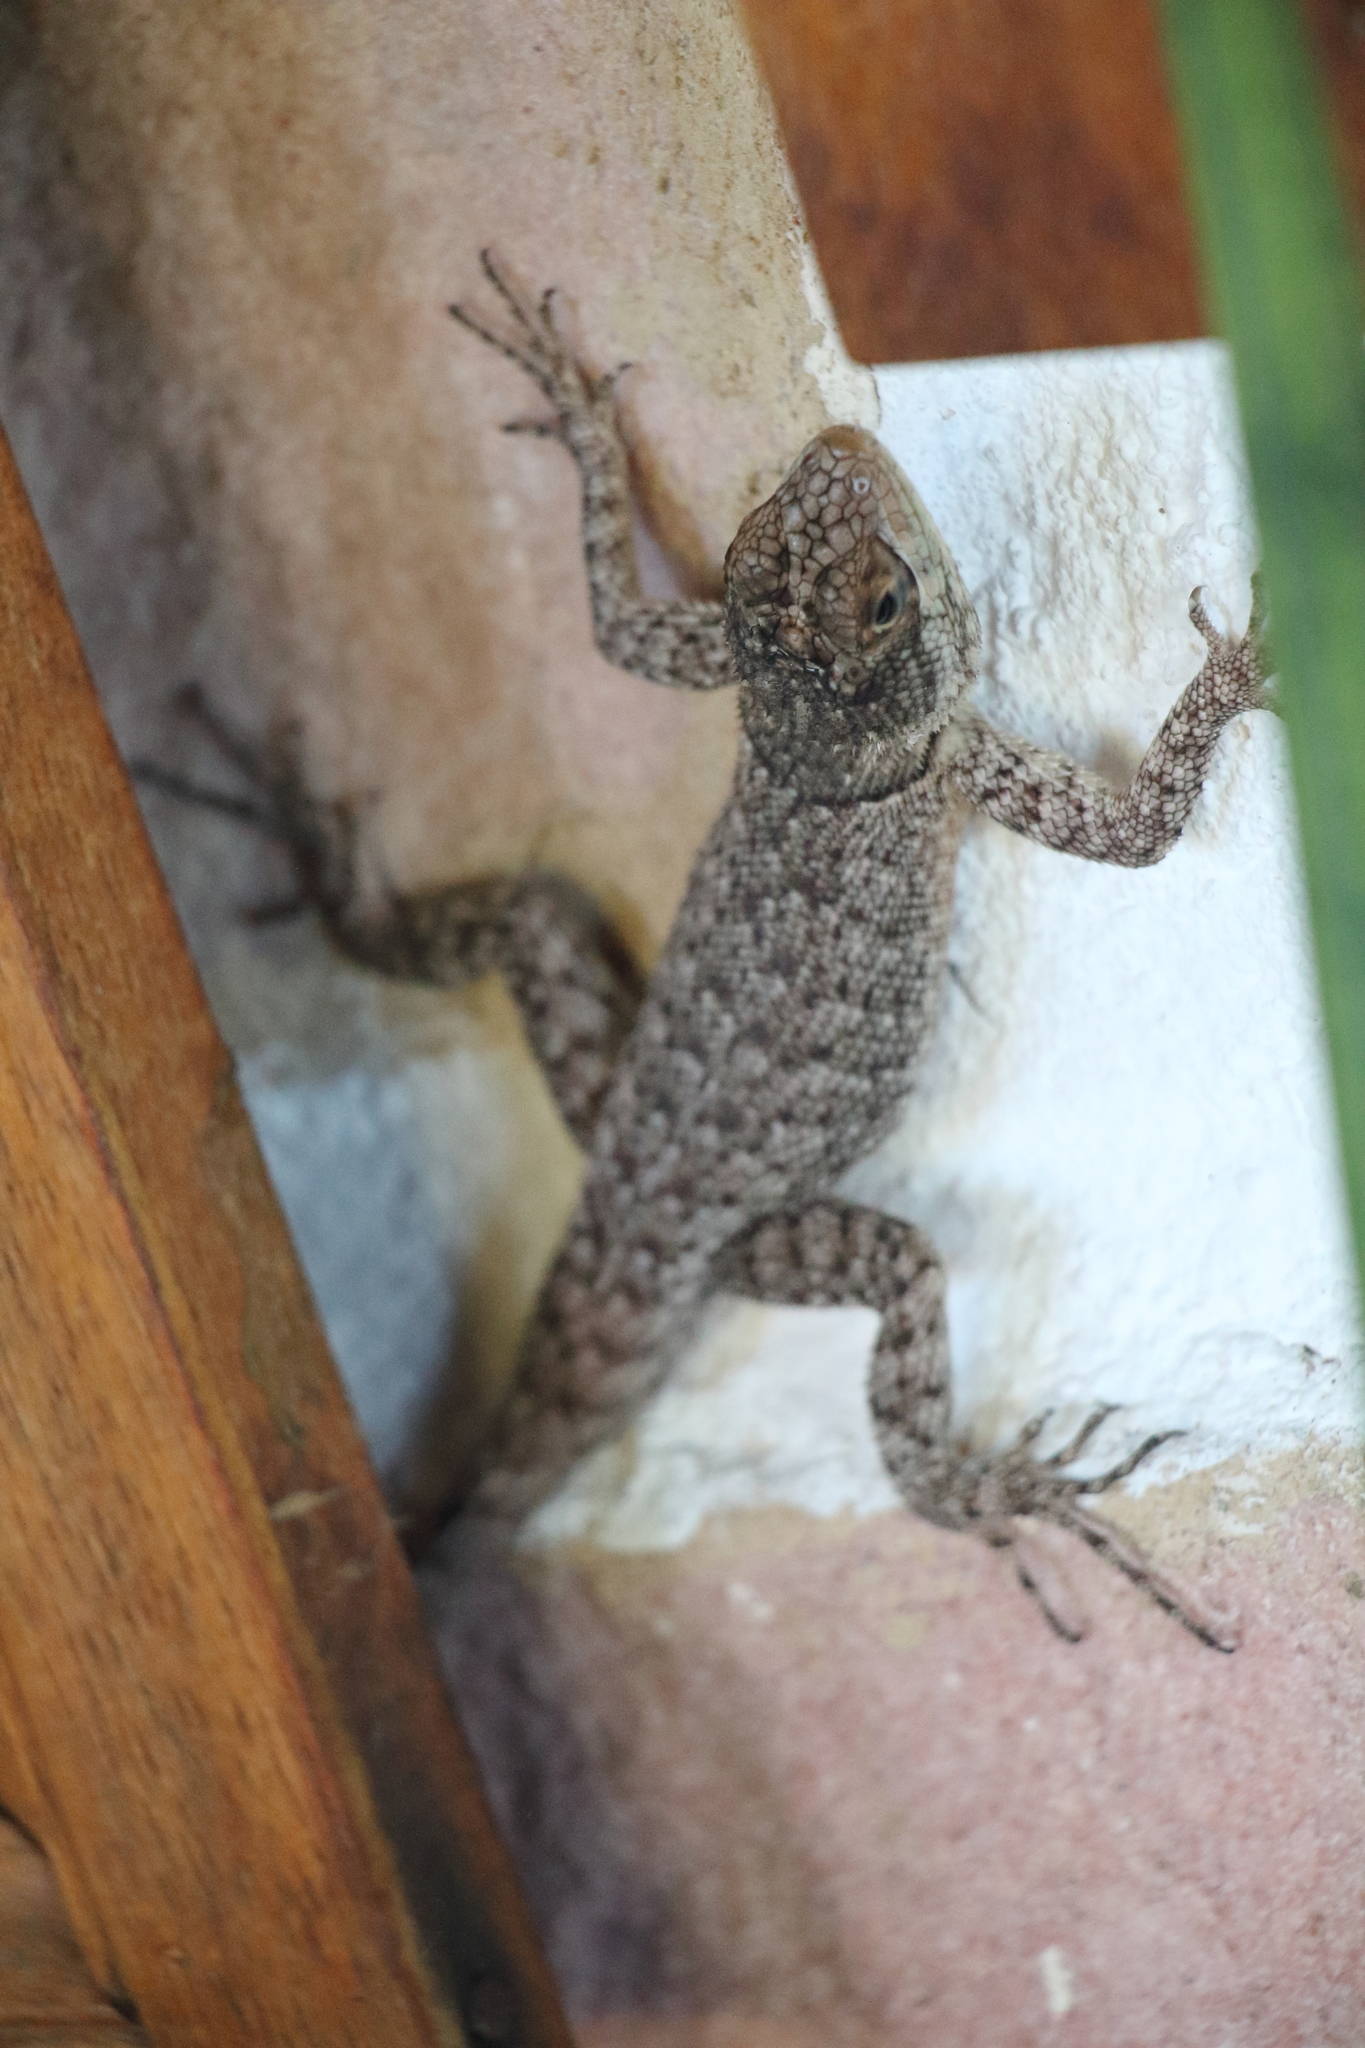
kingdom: Animalia
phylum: Chordata
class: Squamata
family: Tropiduridae
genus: Tropidurus
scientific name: Tropidurus hispidus
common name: Peters' lava lizard
